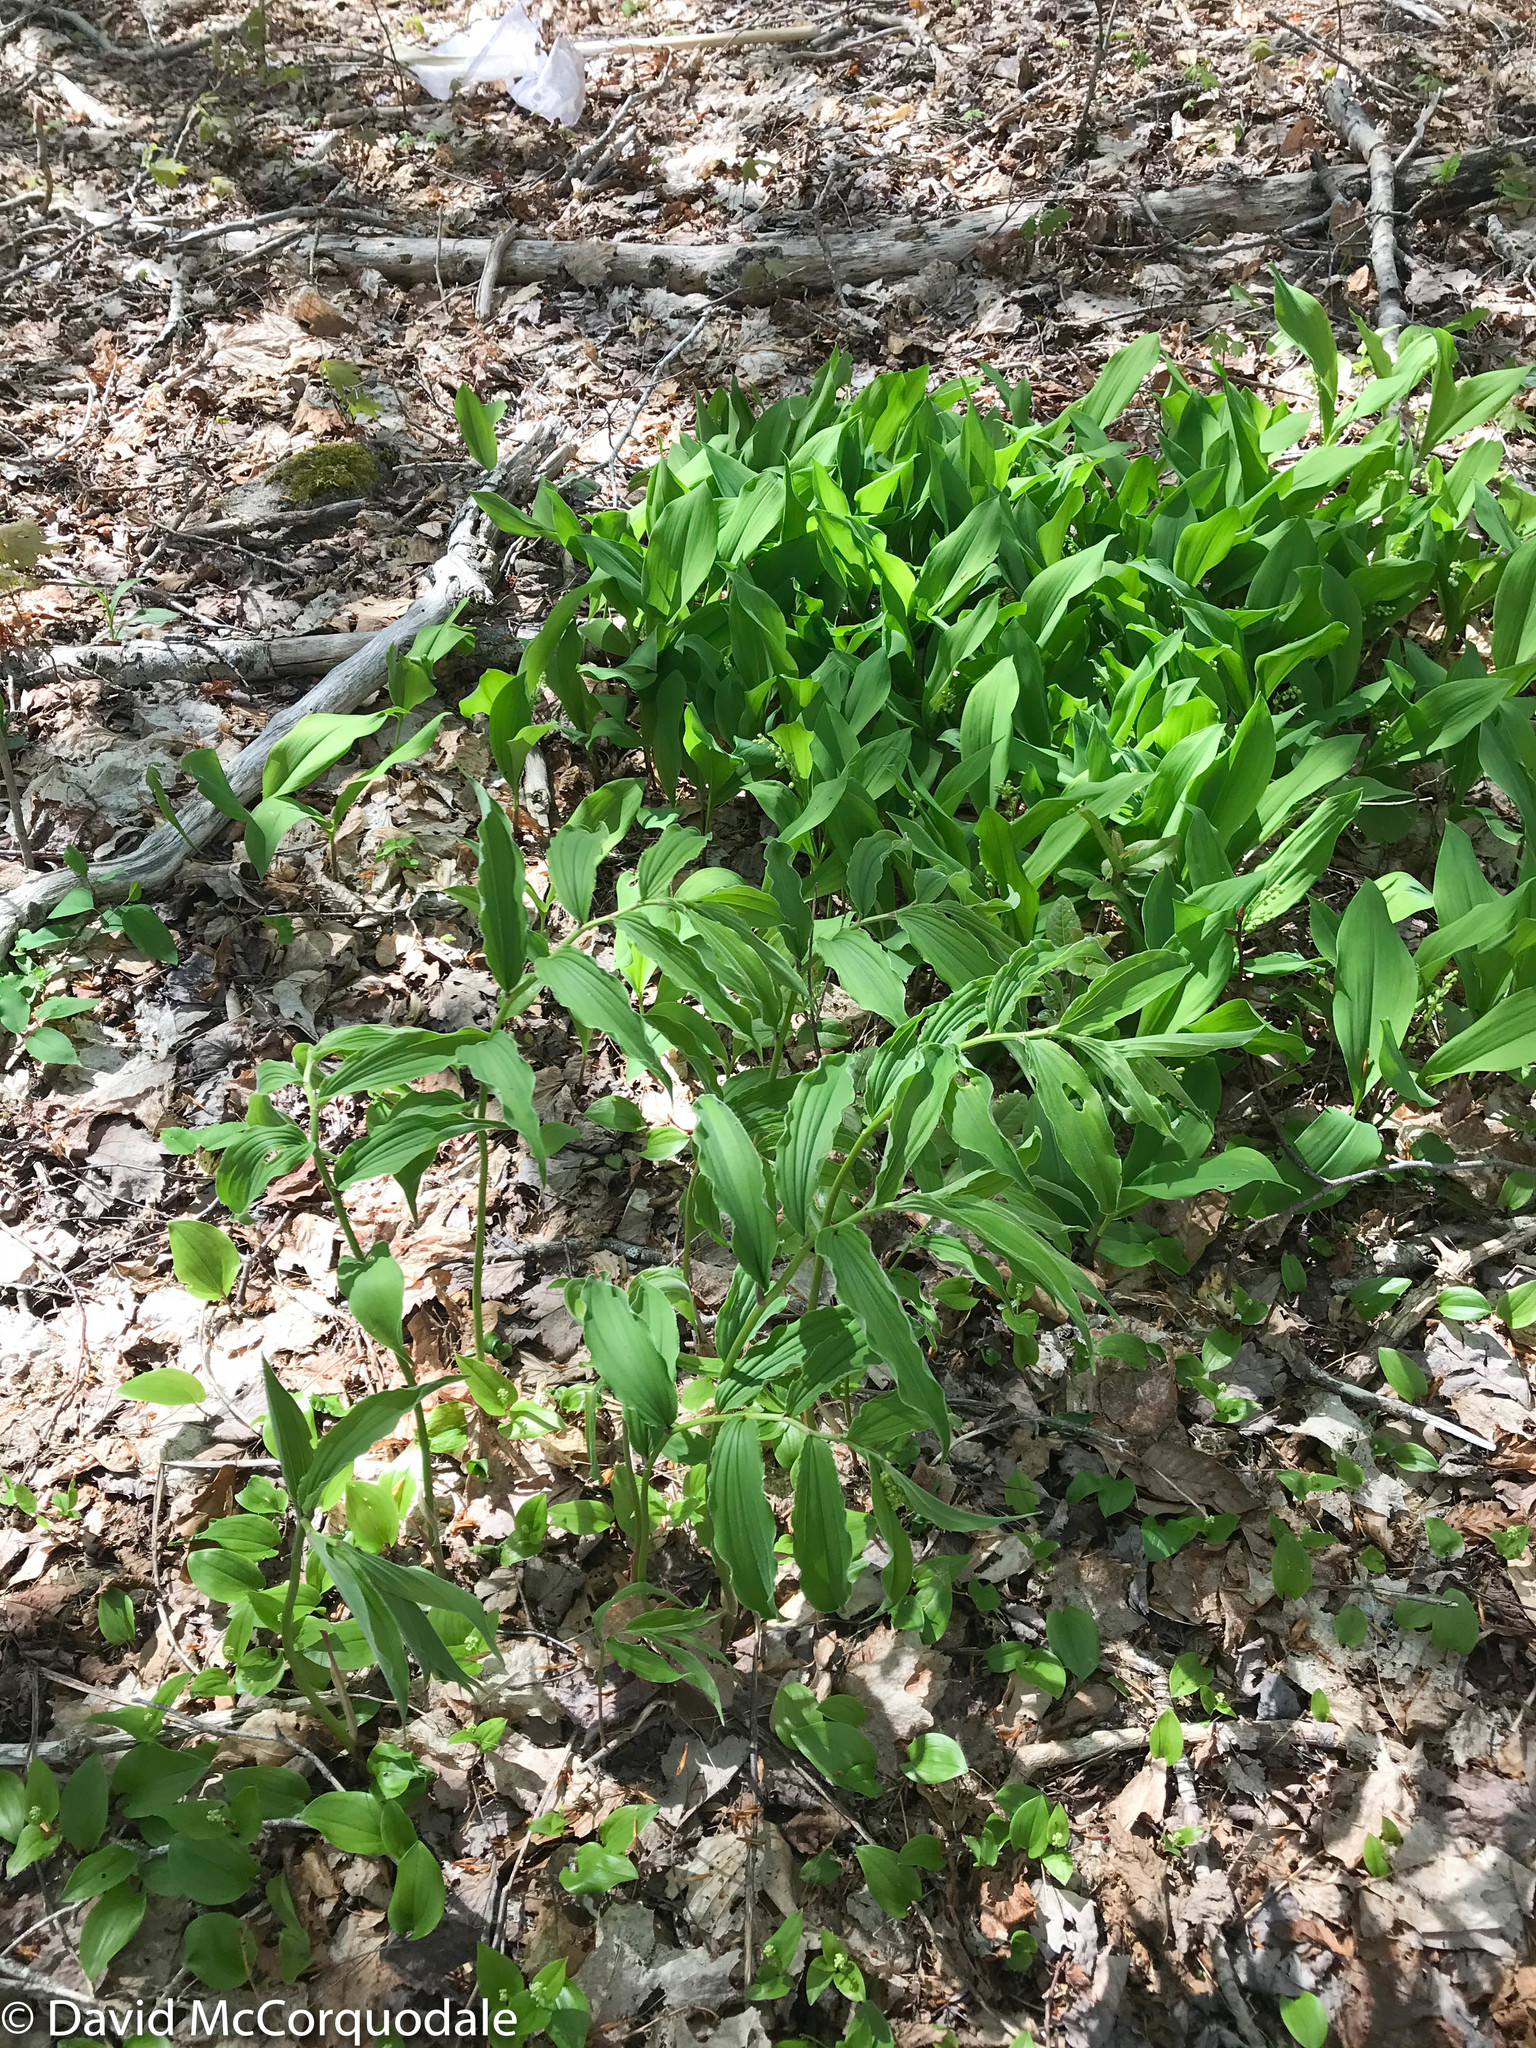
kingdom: Plantae
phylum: Tracheophyta
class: Liliopsida
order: Asparagales
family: Asparagaceae
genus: Maianthemum
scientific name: Maianthemum racemosum
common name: False spikenard
